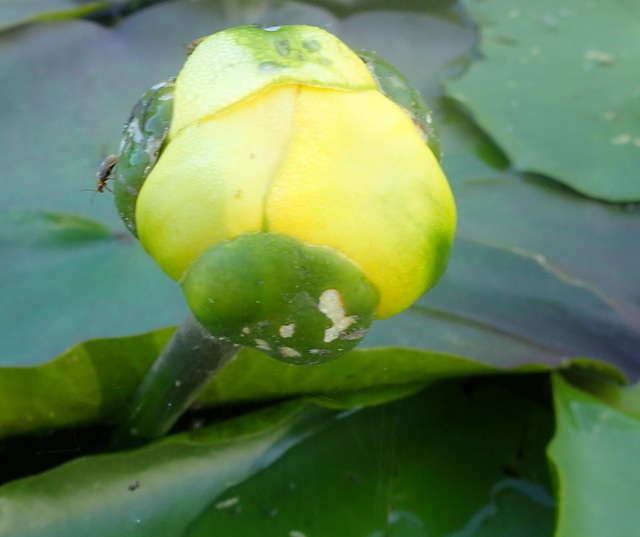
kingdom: Plantae
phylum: Tracheophyta
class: Magnoliopsida
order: Nymphaeales
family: Nymphaeaceae
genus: Nuphar
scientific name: Nuphar advena
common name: Spatter-dock
